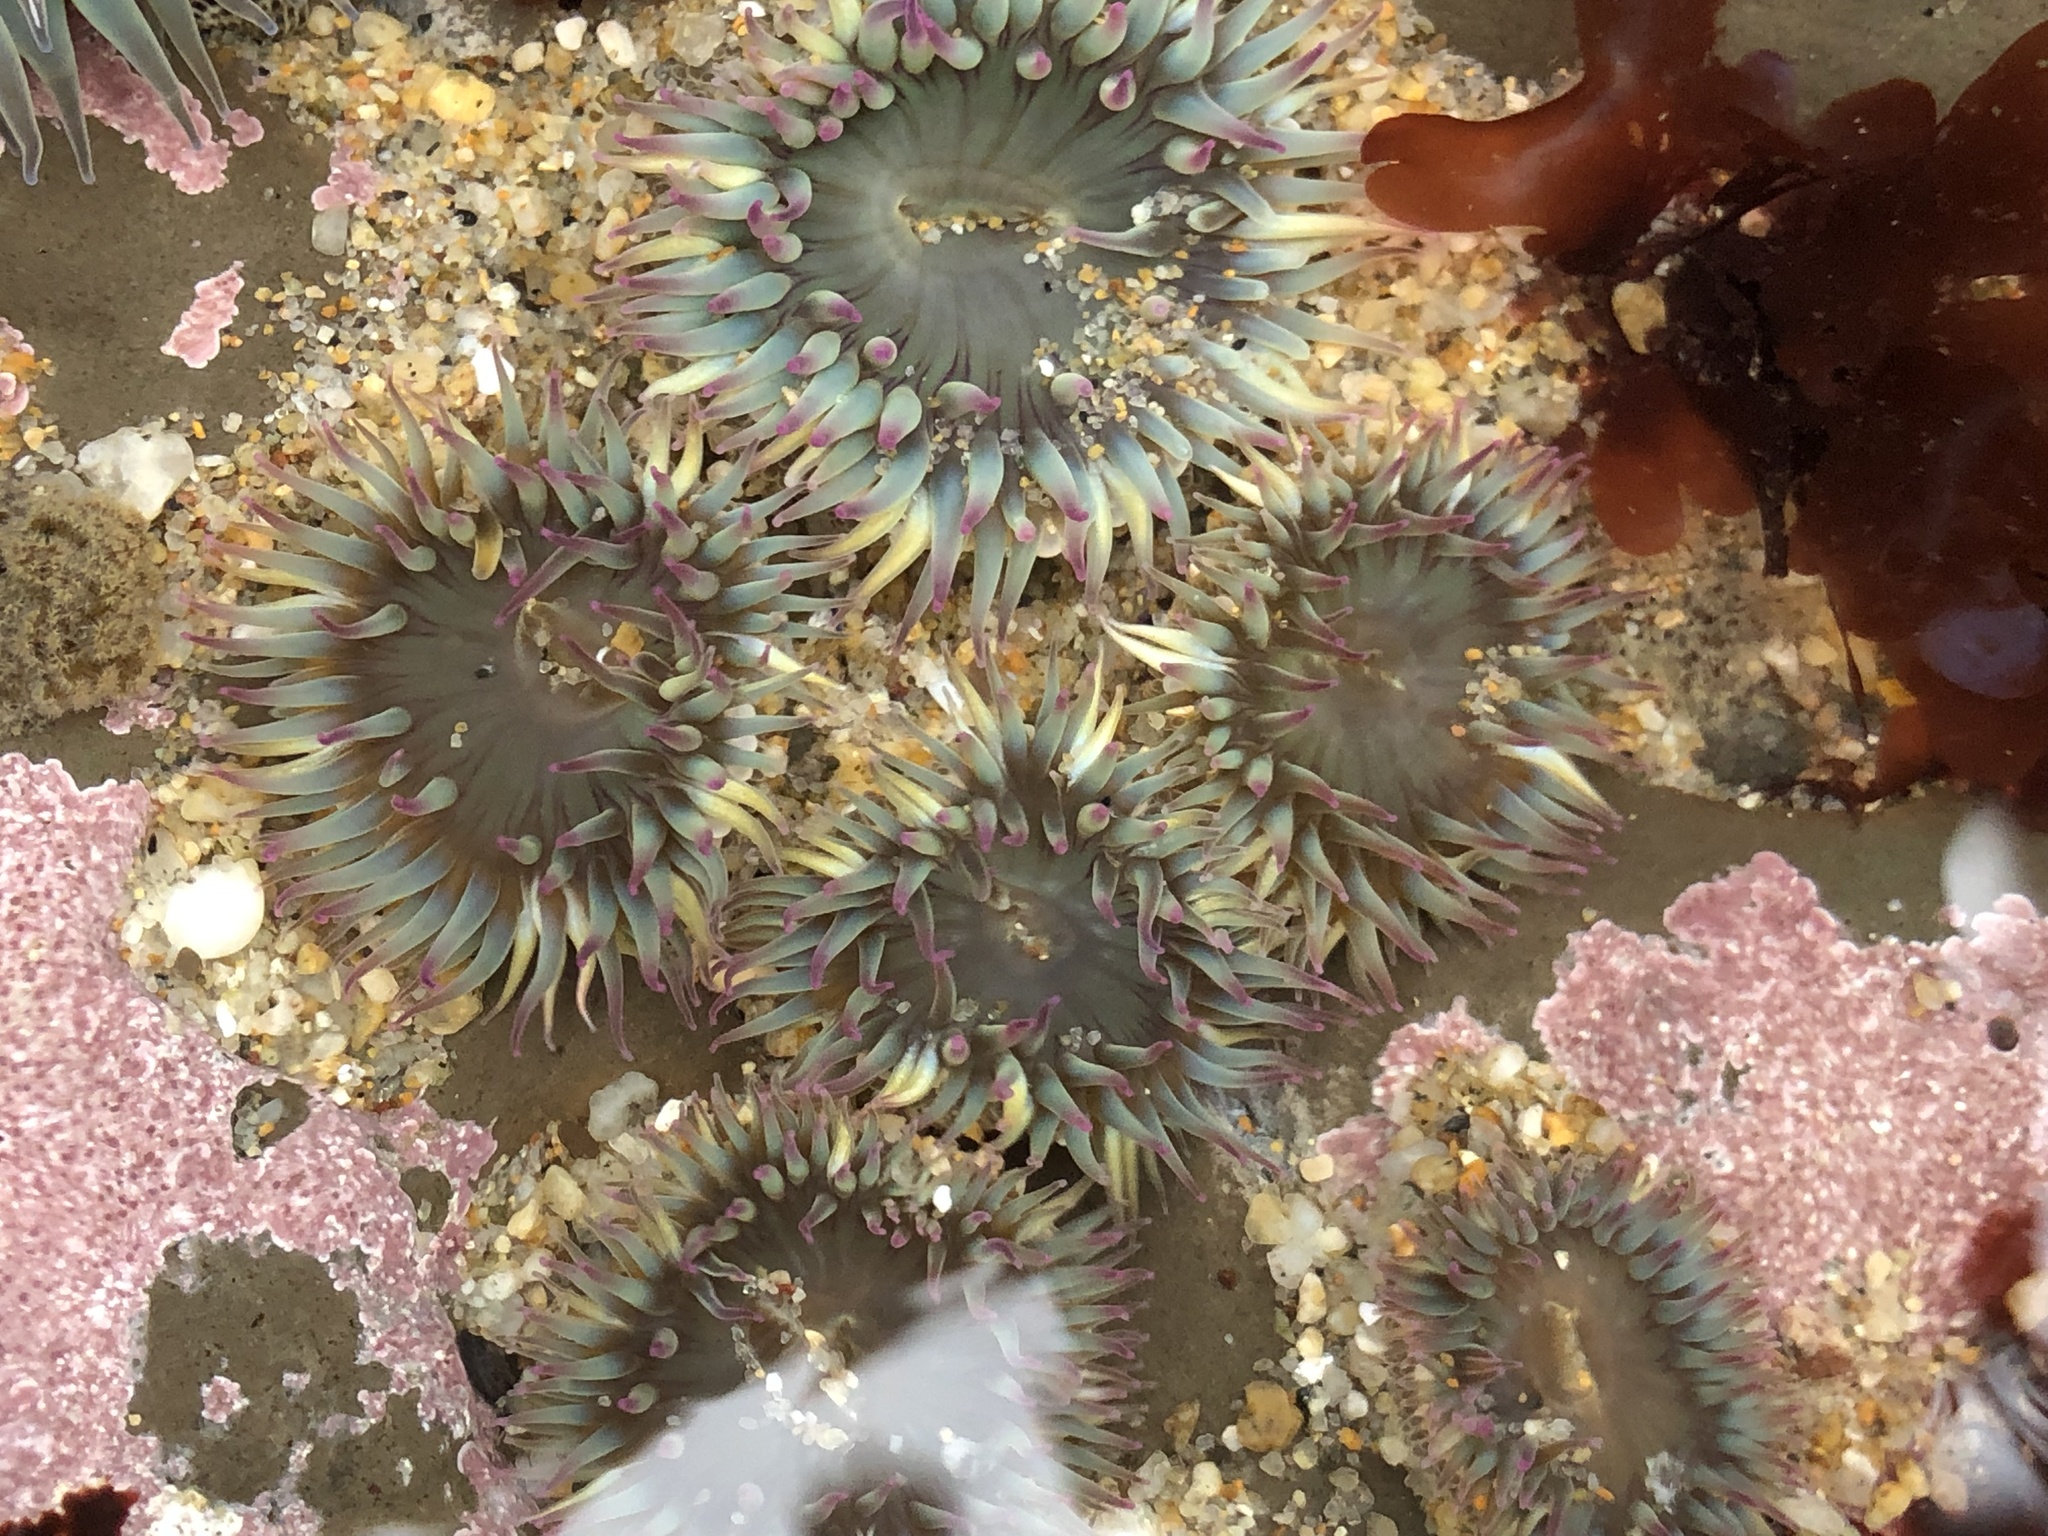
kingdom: Animalia
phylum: Cnidaria
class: Anthozoa
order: Actiniaria
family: Actiniidae
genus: Anthopleura
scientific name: Anthopleura elegantissima
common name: Clonal anemone
